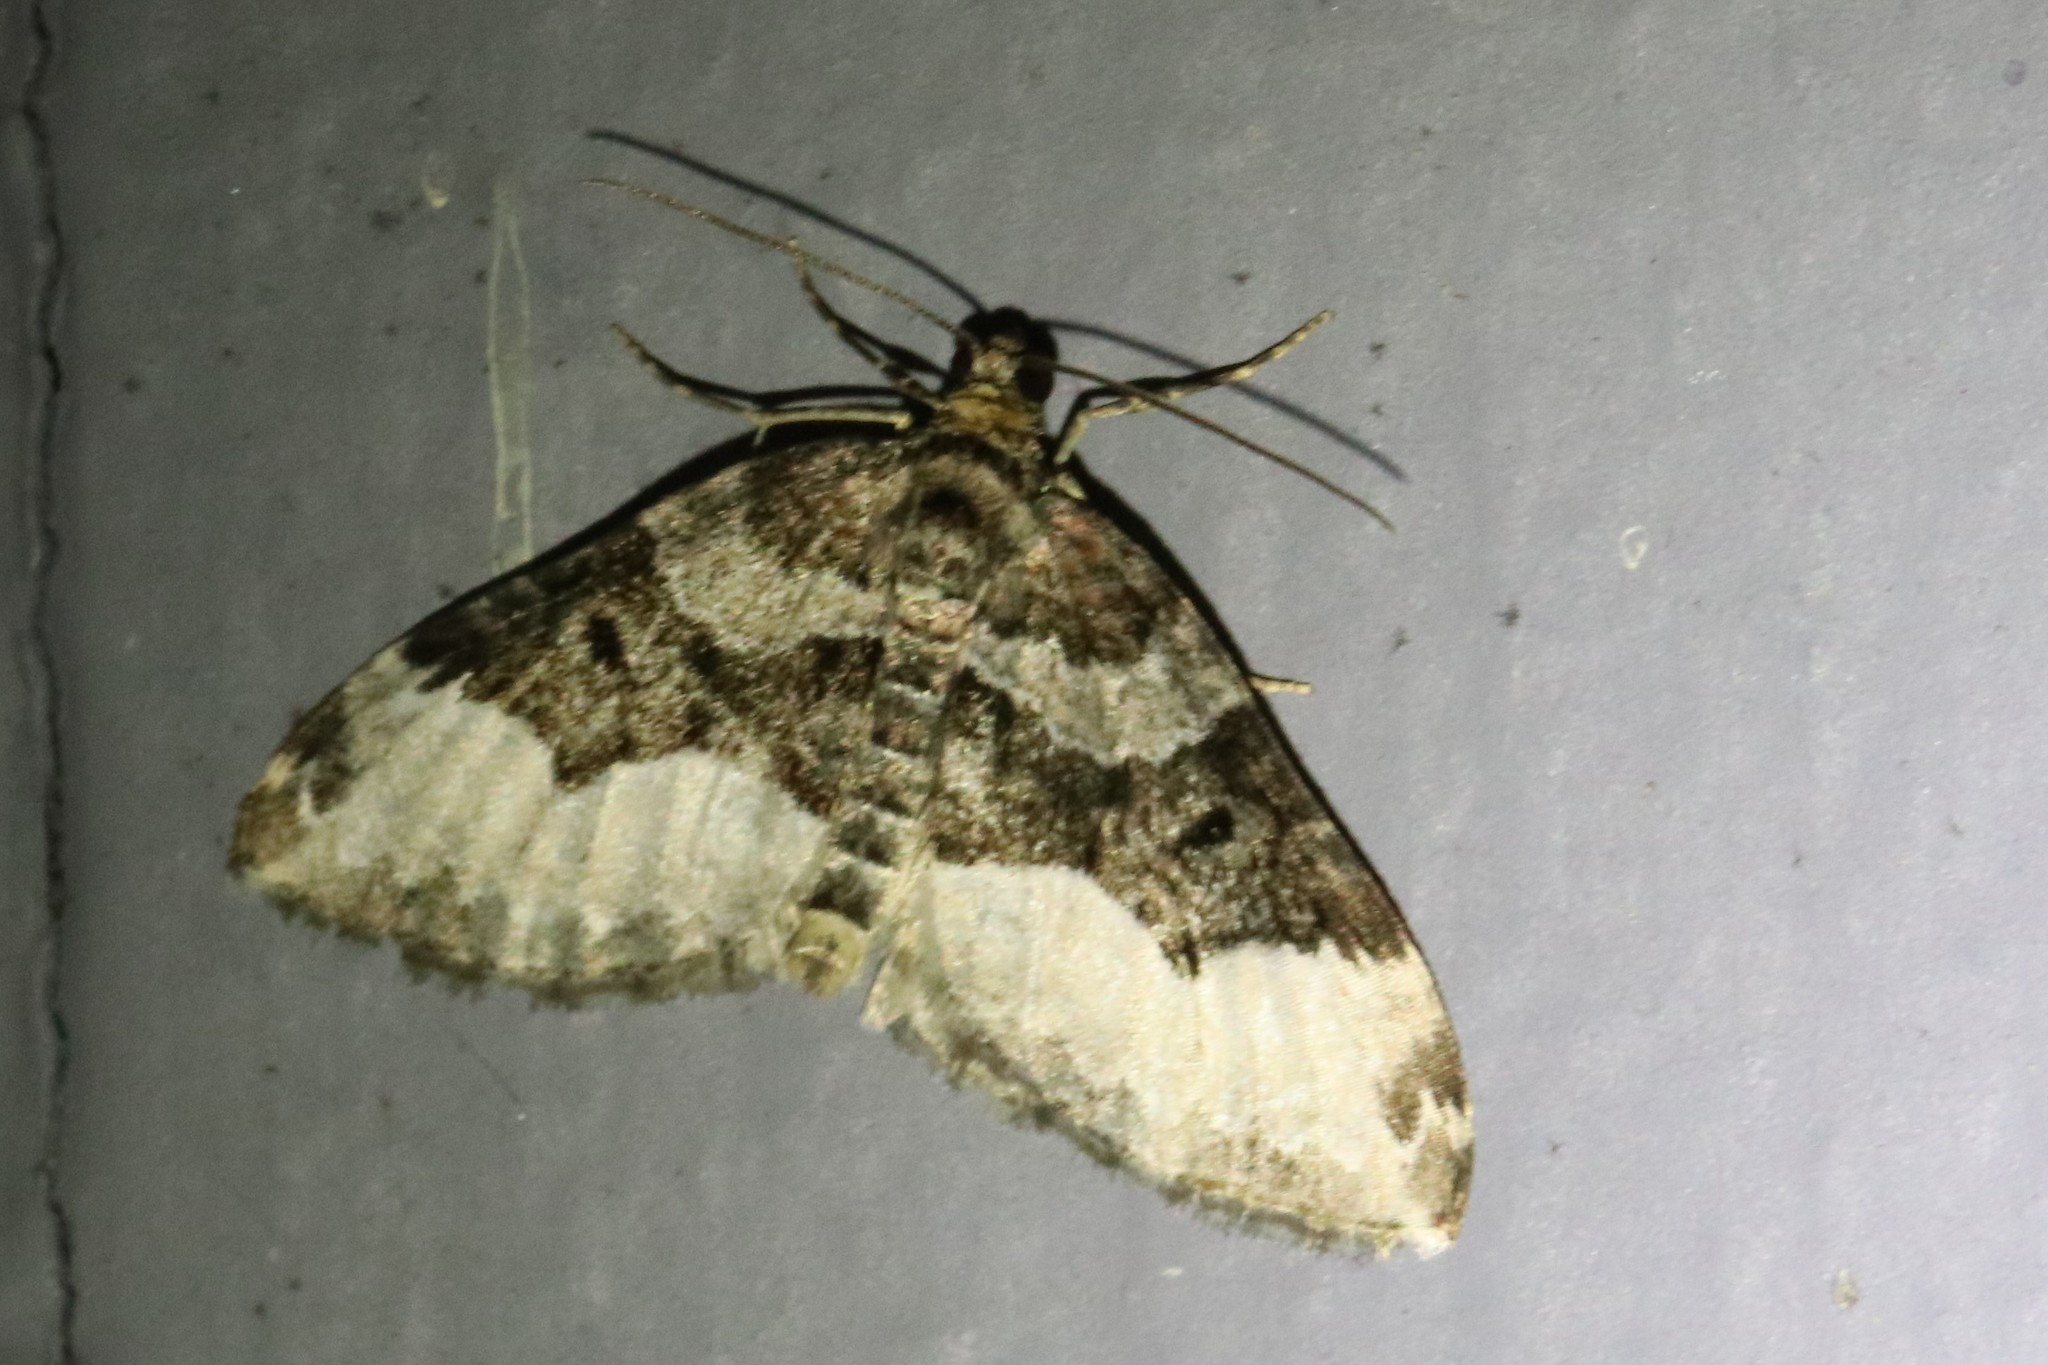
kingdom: Animalia
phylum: Arthropoda
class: Insecta
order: Lepidoptera
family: Geometridae
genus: Euphyia
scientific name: Euphyia intermediata
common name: Sharp-angled carpet
